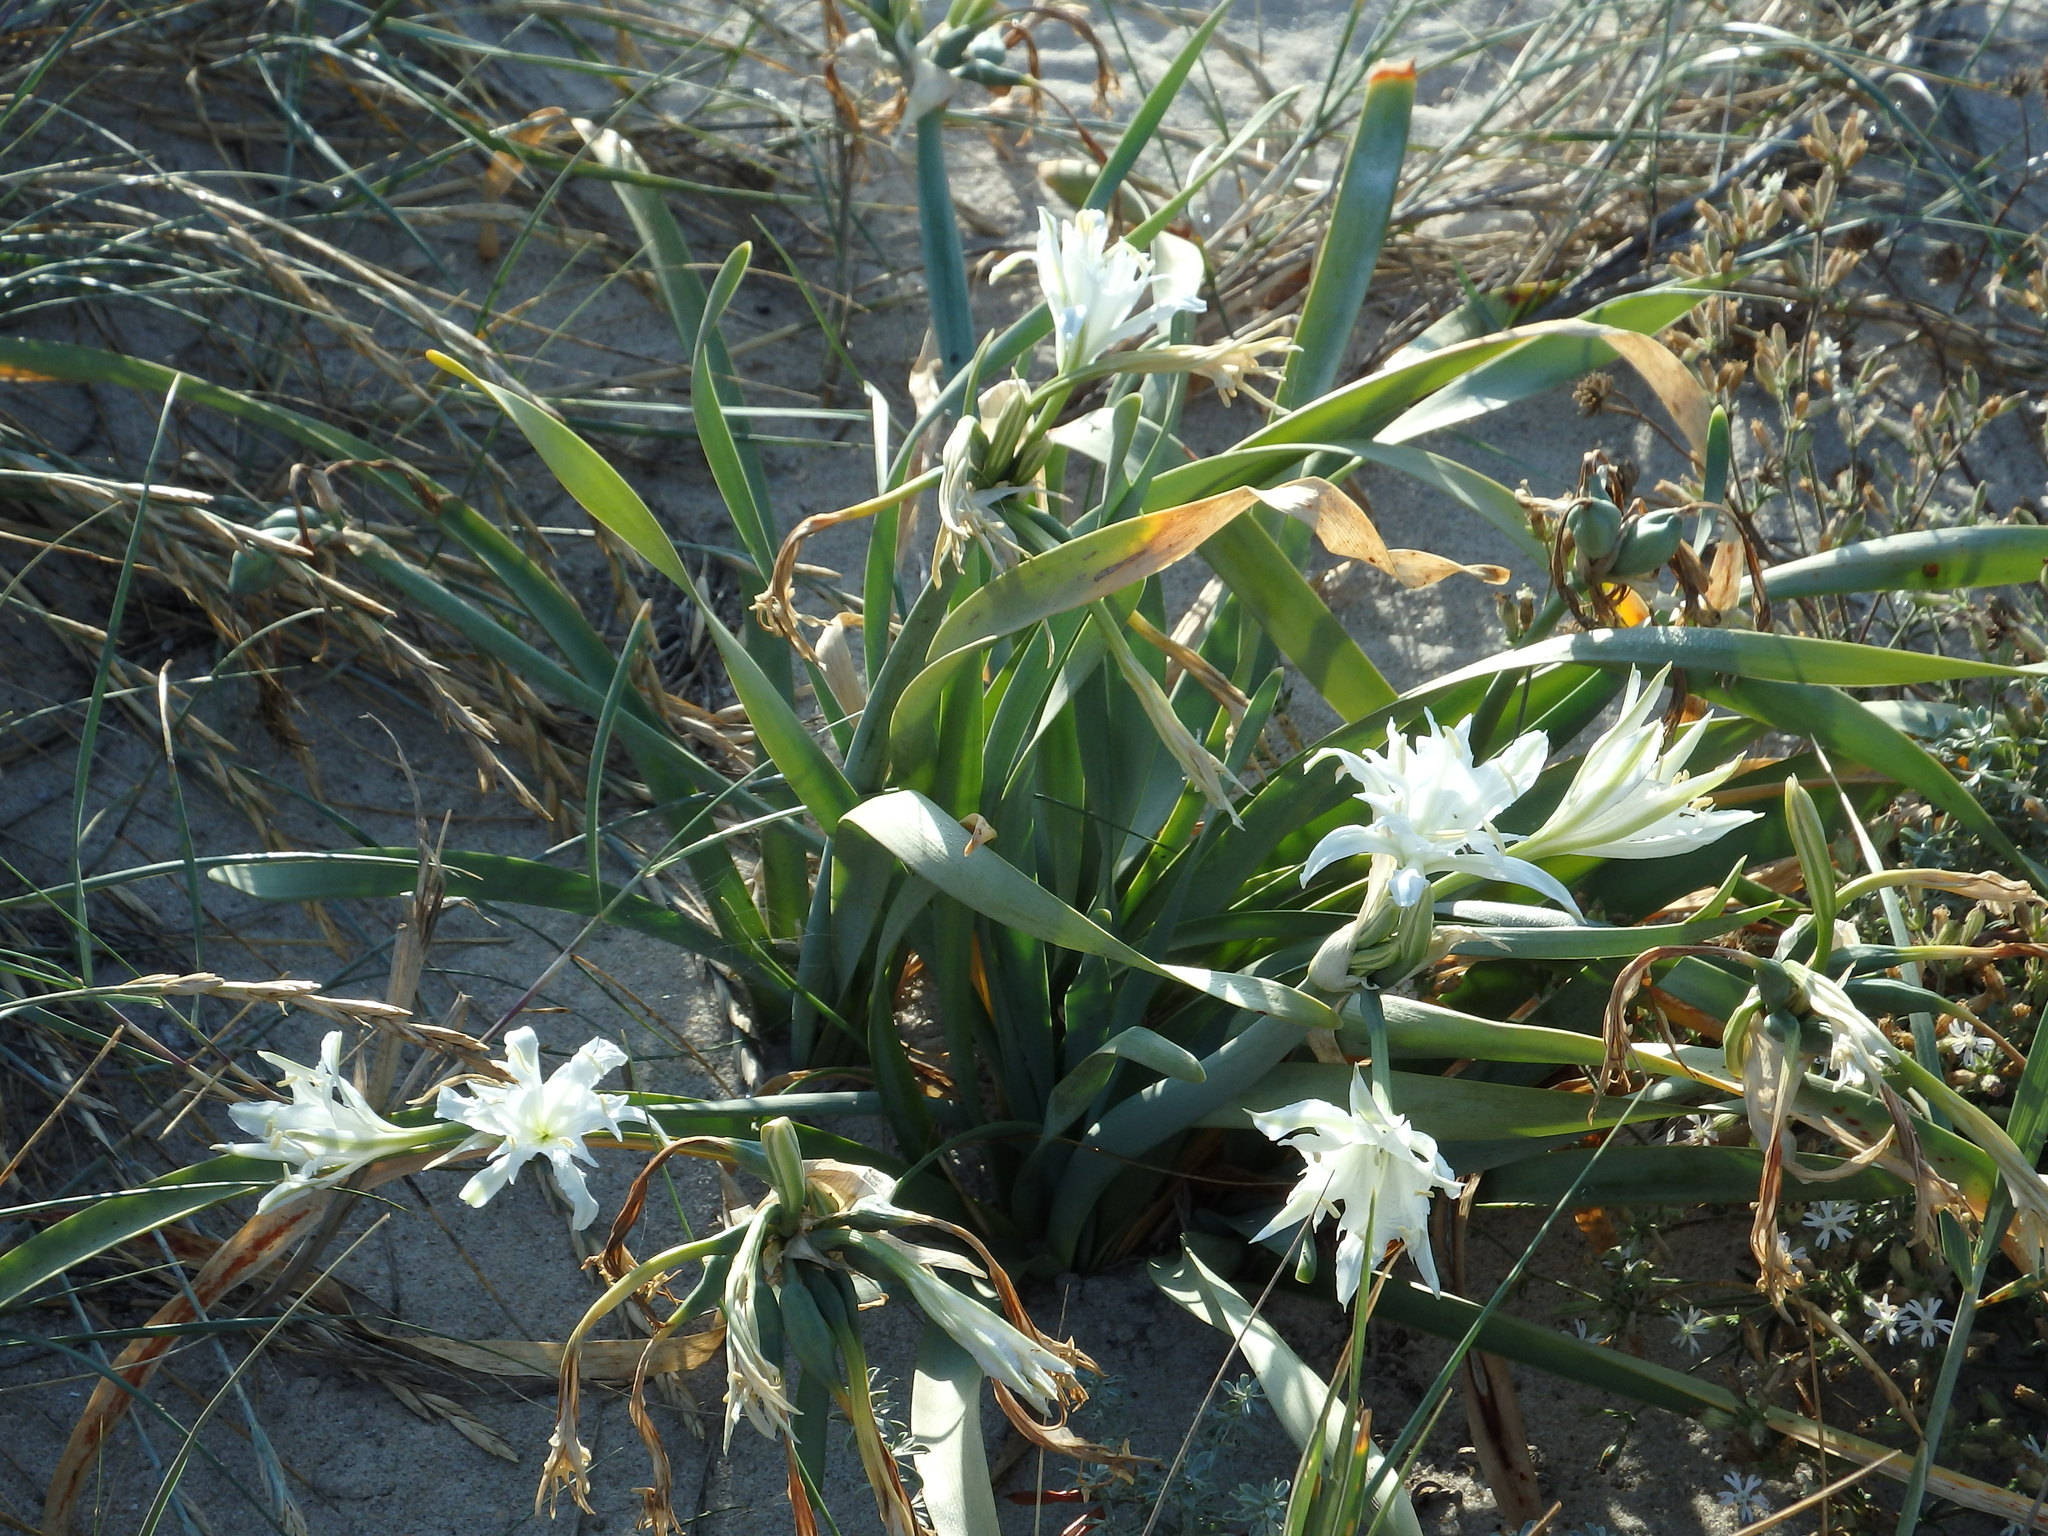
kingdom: Plantae
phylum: Tracheophyta
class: Liliopsida
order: Asparagales
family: Amaryllidaceae
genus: Pancratium
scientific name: Pancratium maritimum
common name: Sea-daffodil
